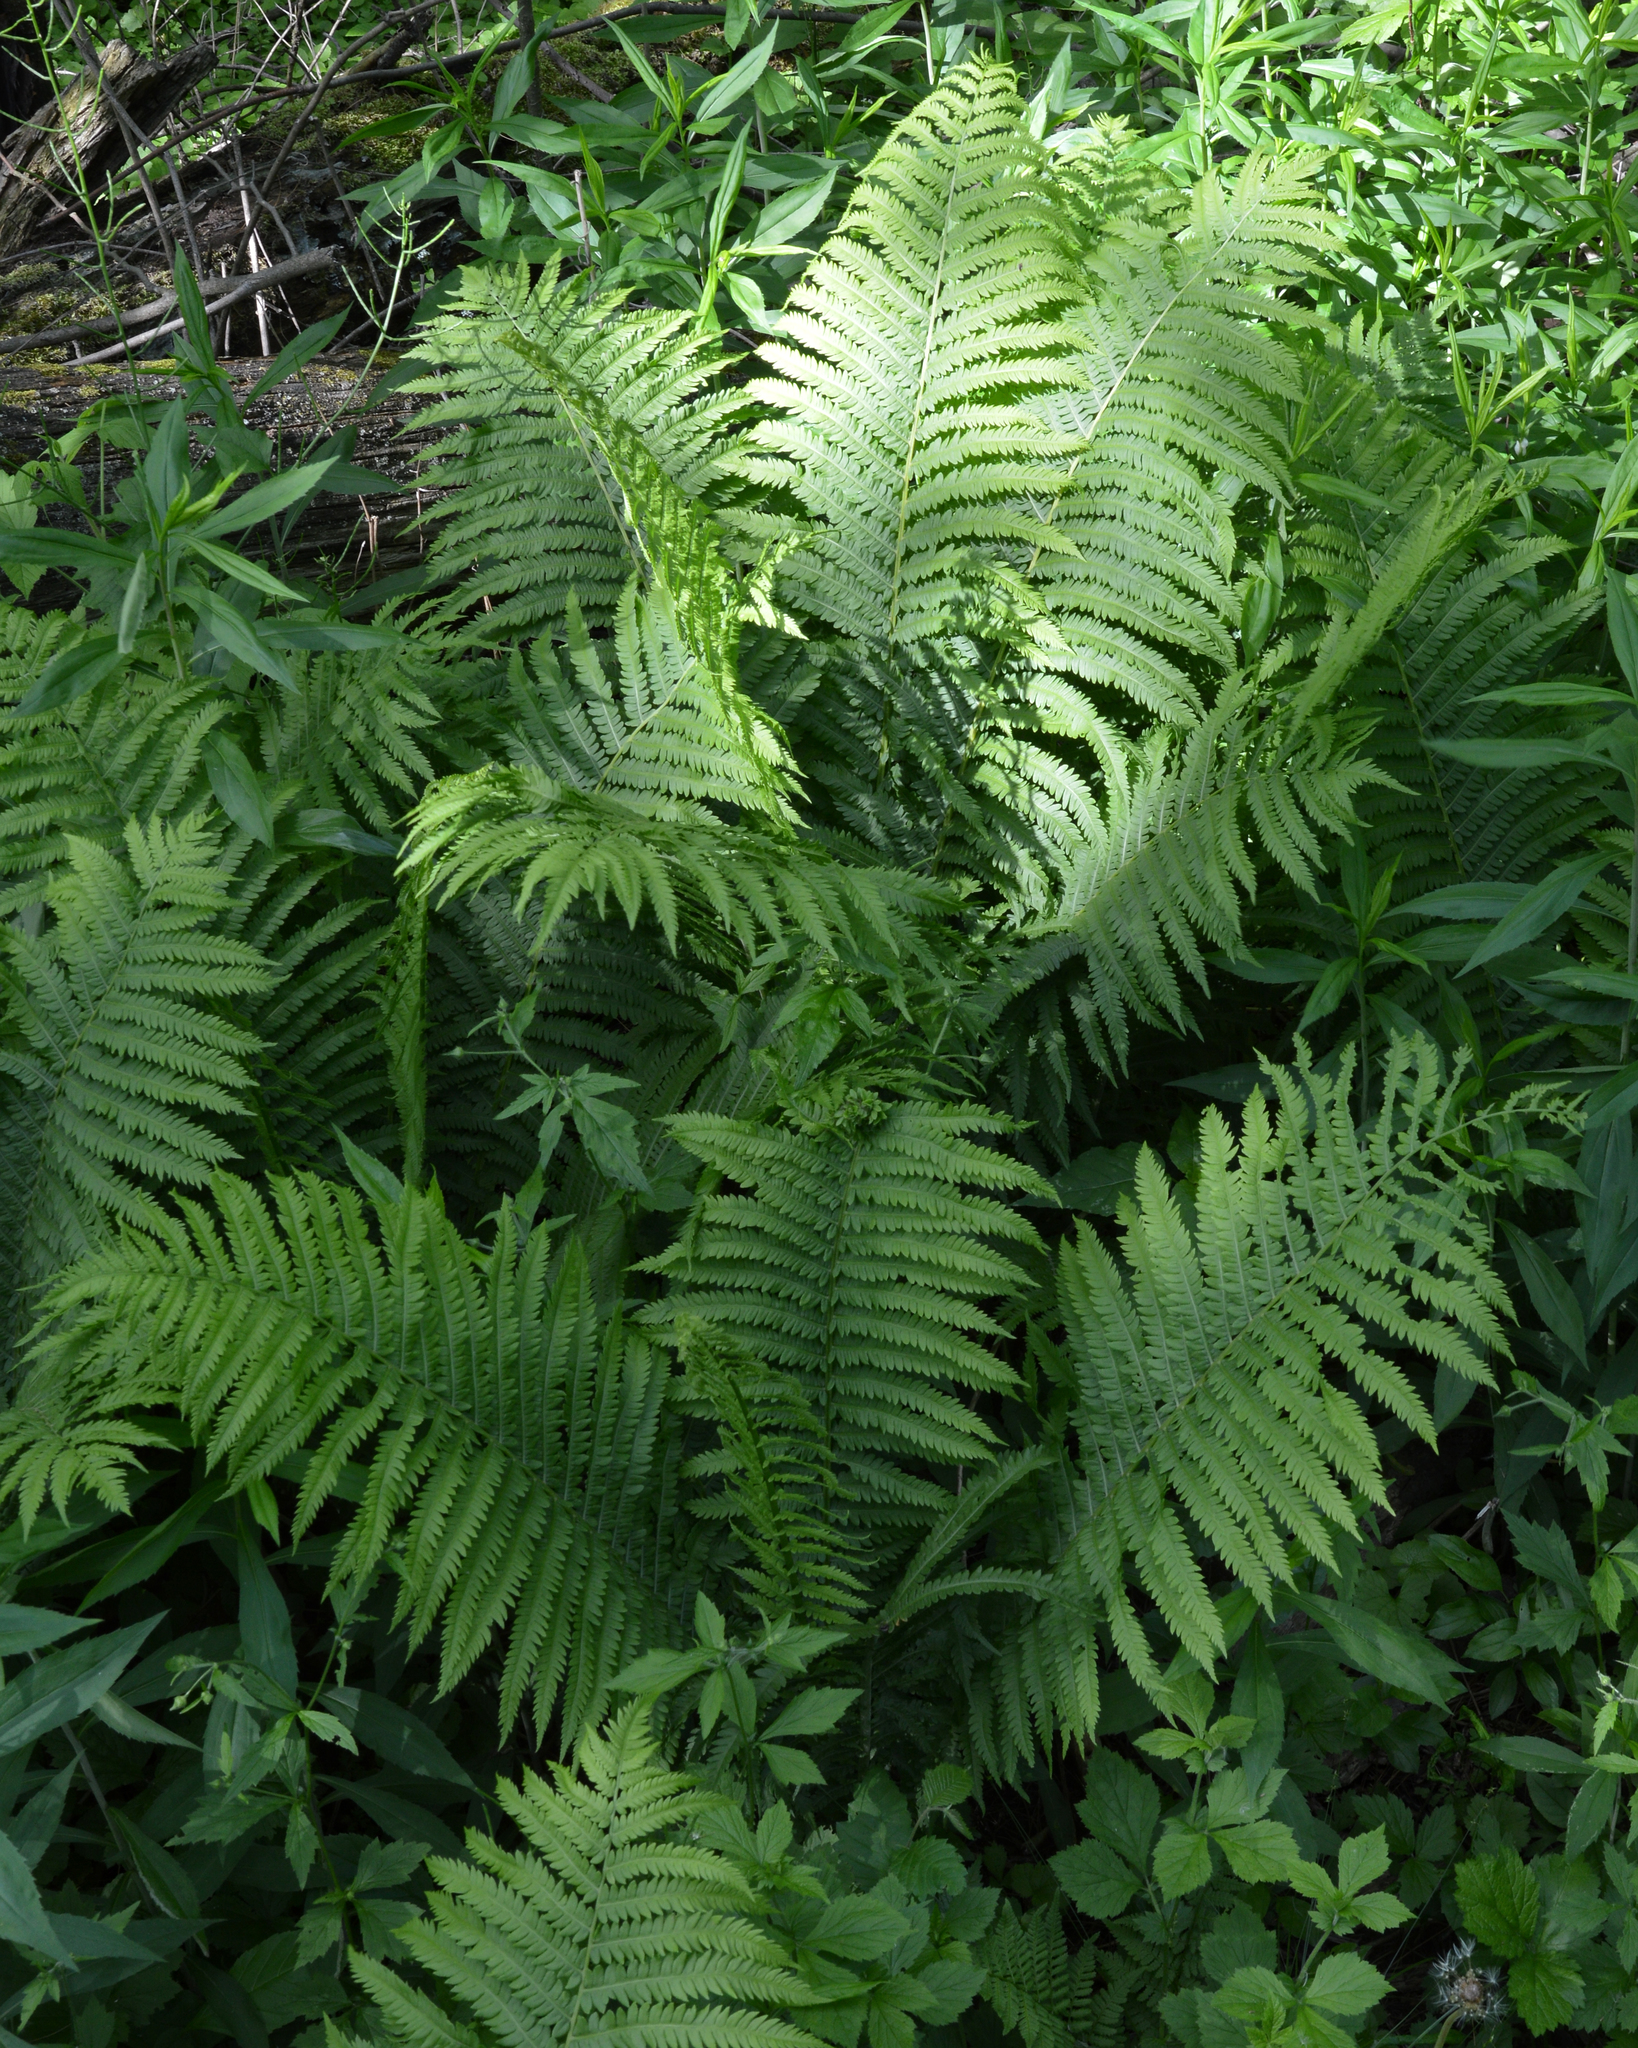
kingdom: Plantae
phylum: Tracheophyta
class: Polypodiopsida
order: Polypodiales
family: Onocleaceae
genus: Matteuccia
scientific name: Matteuccia struthiopteris
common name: Ostrich fern
